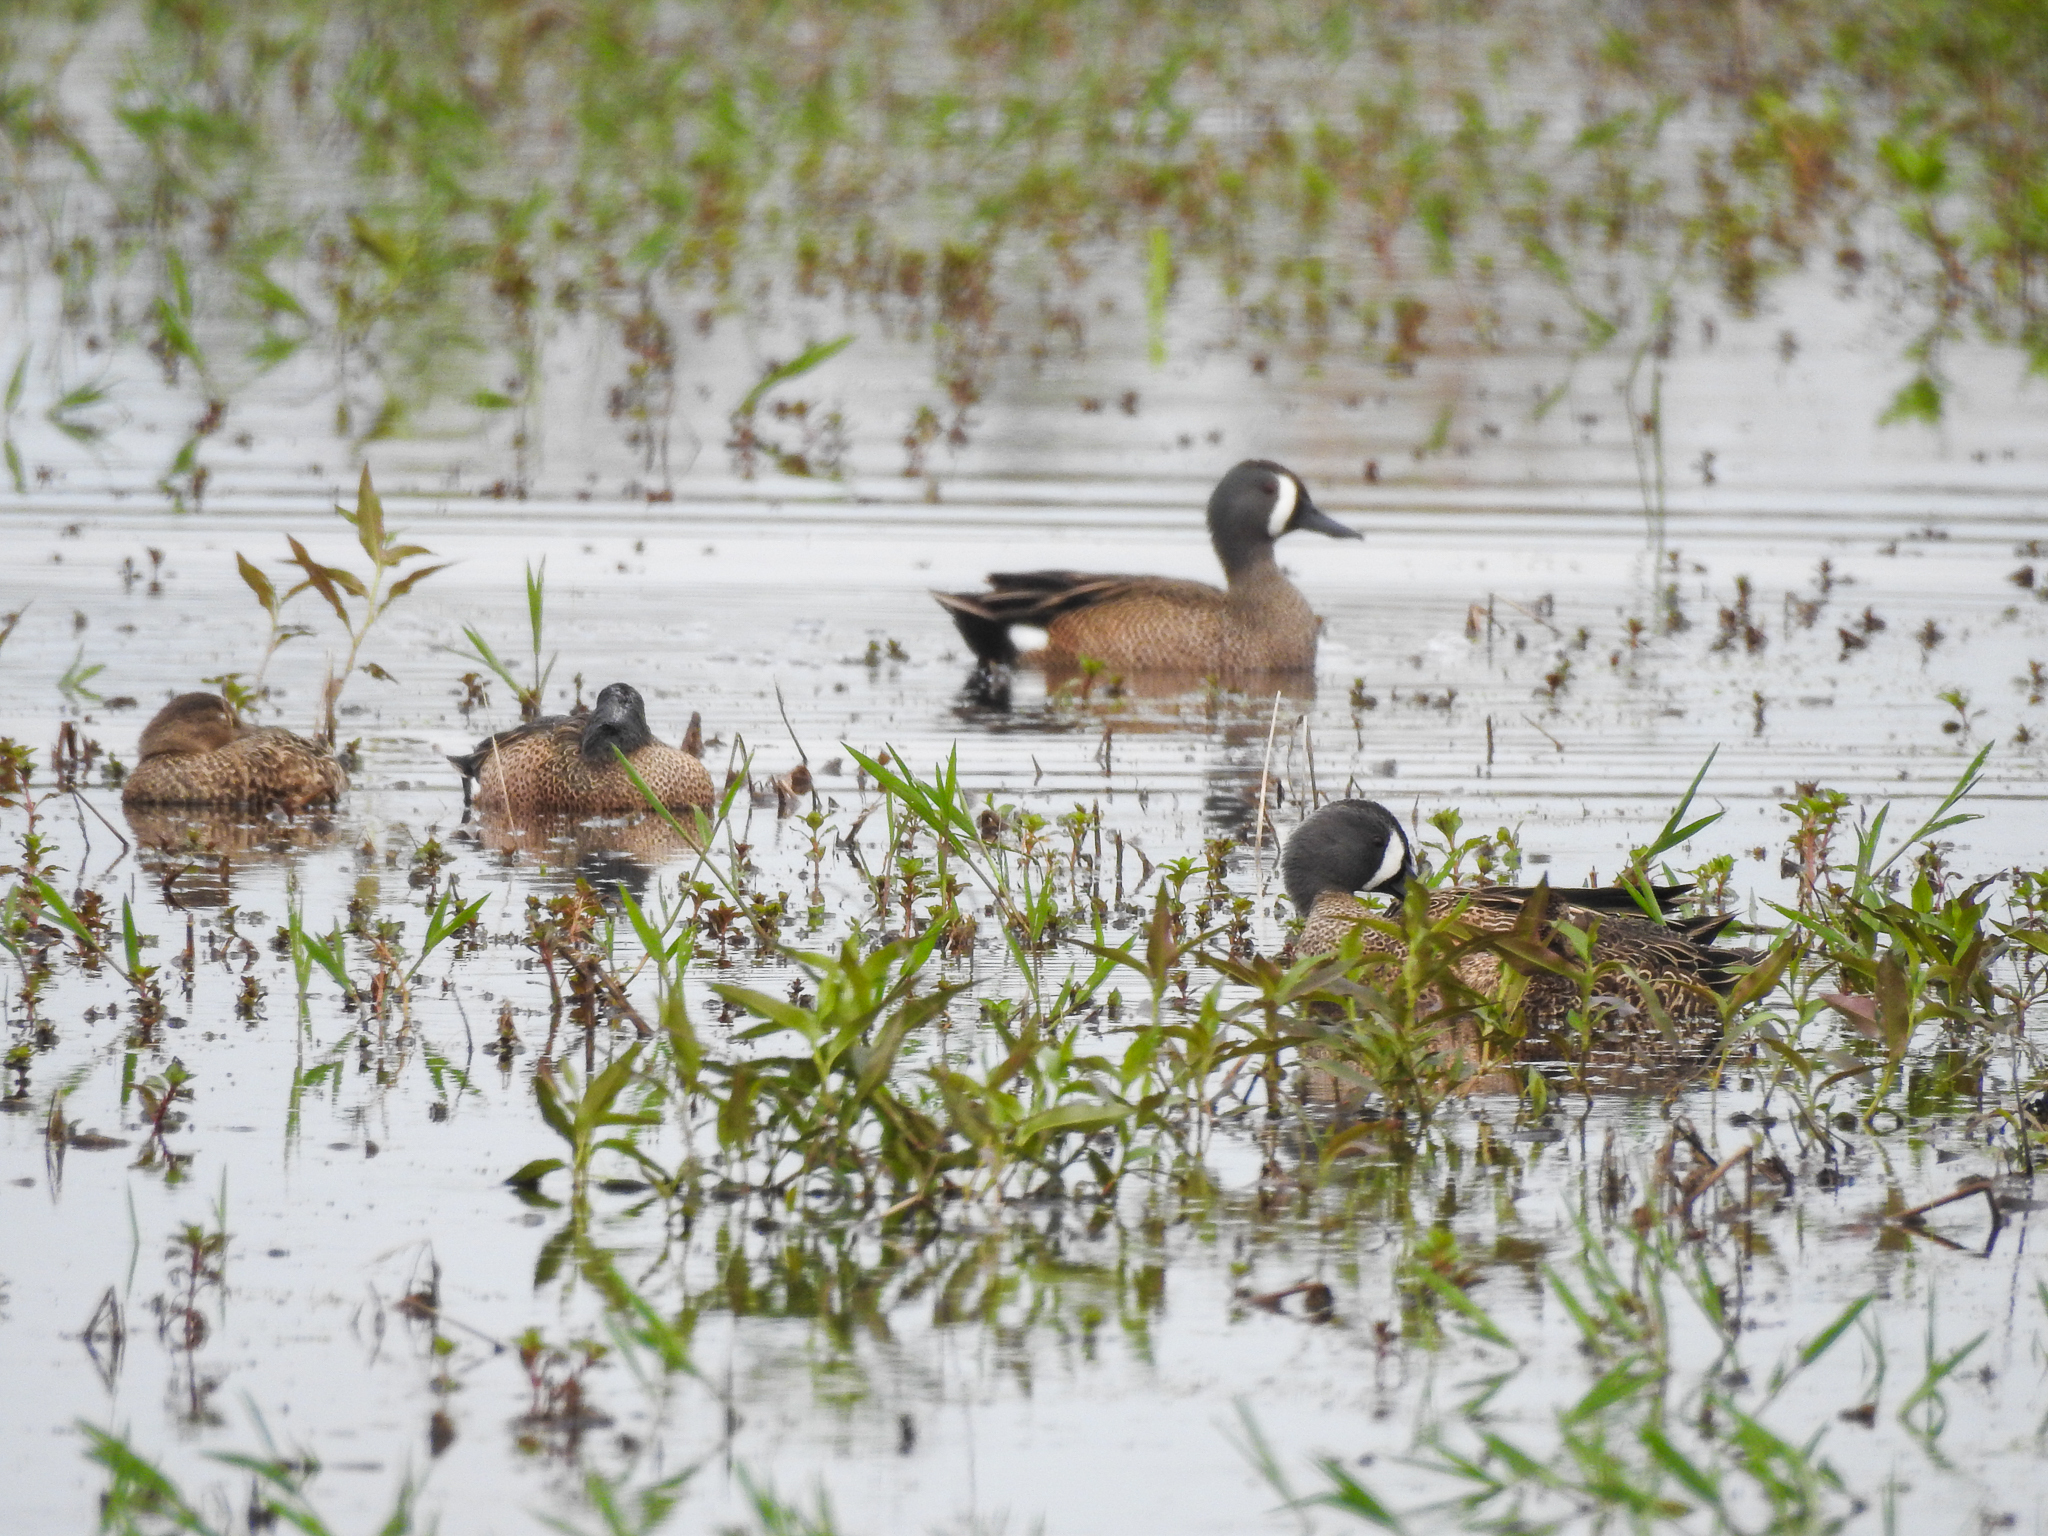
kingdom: Animalia
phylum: Chordata
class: Aves
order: Anseriformes
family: Anatidae
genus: Spatula
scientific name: Spatula discors
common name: Blue-winged teal
